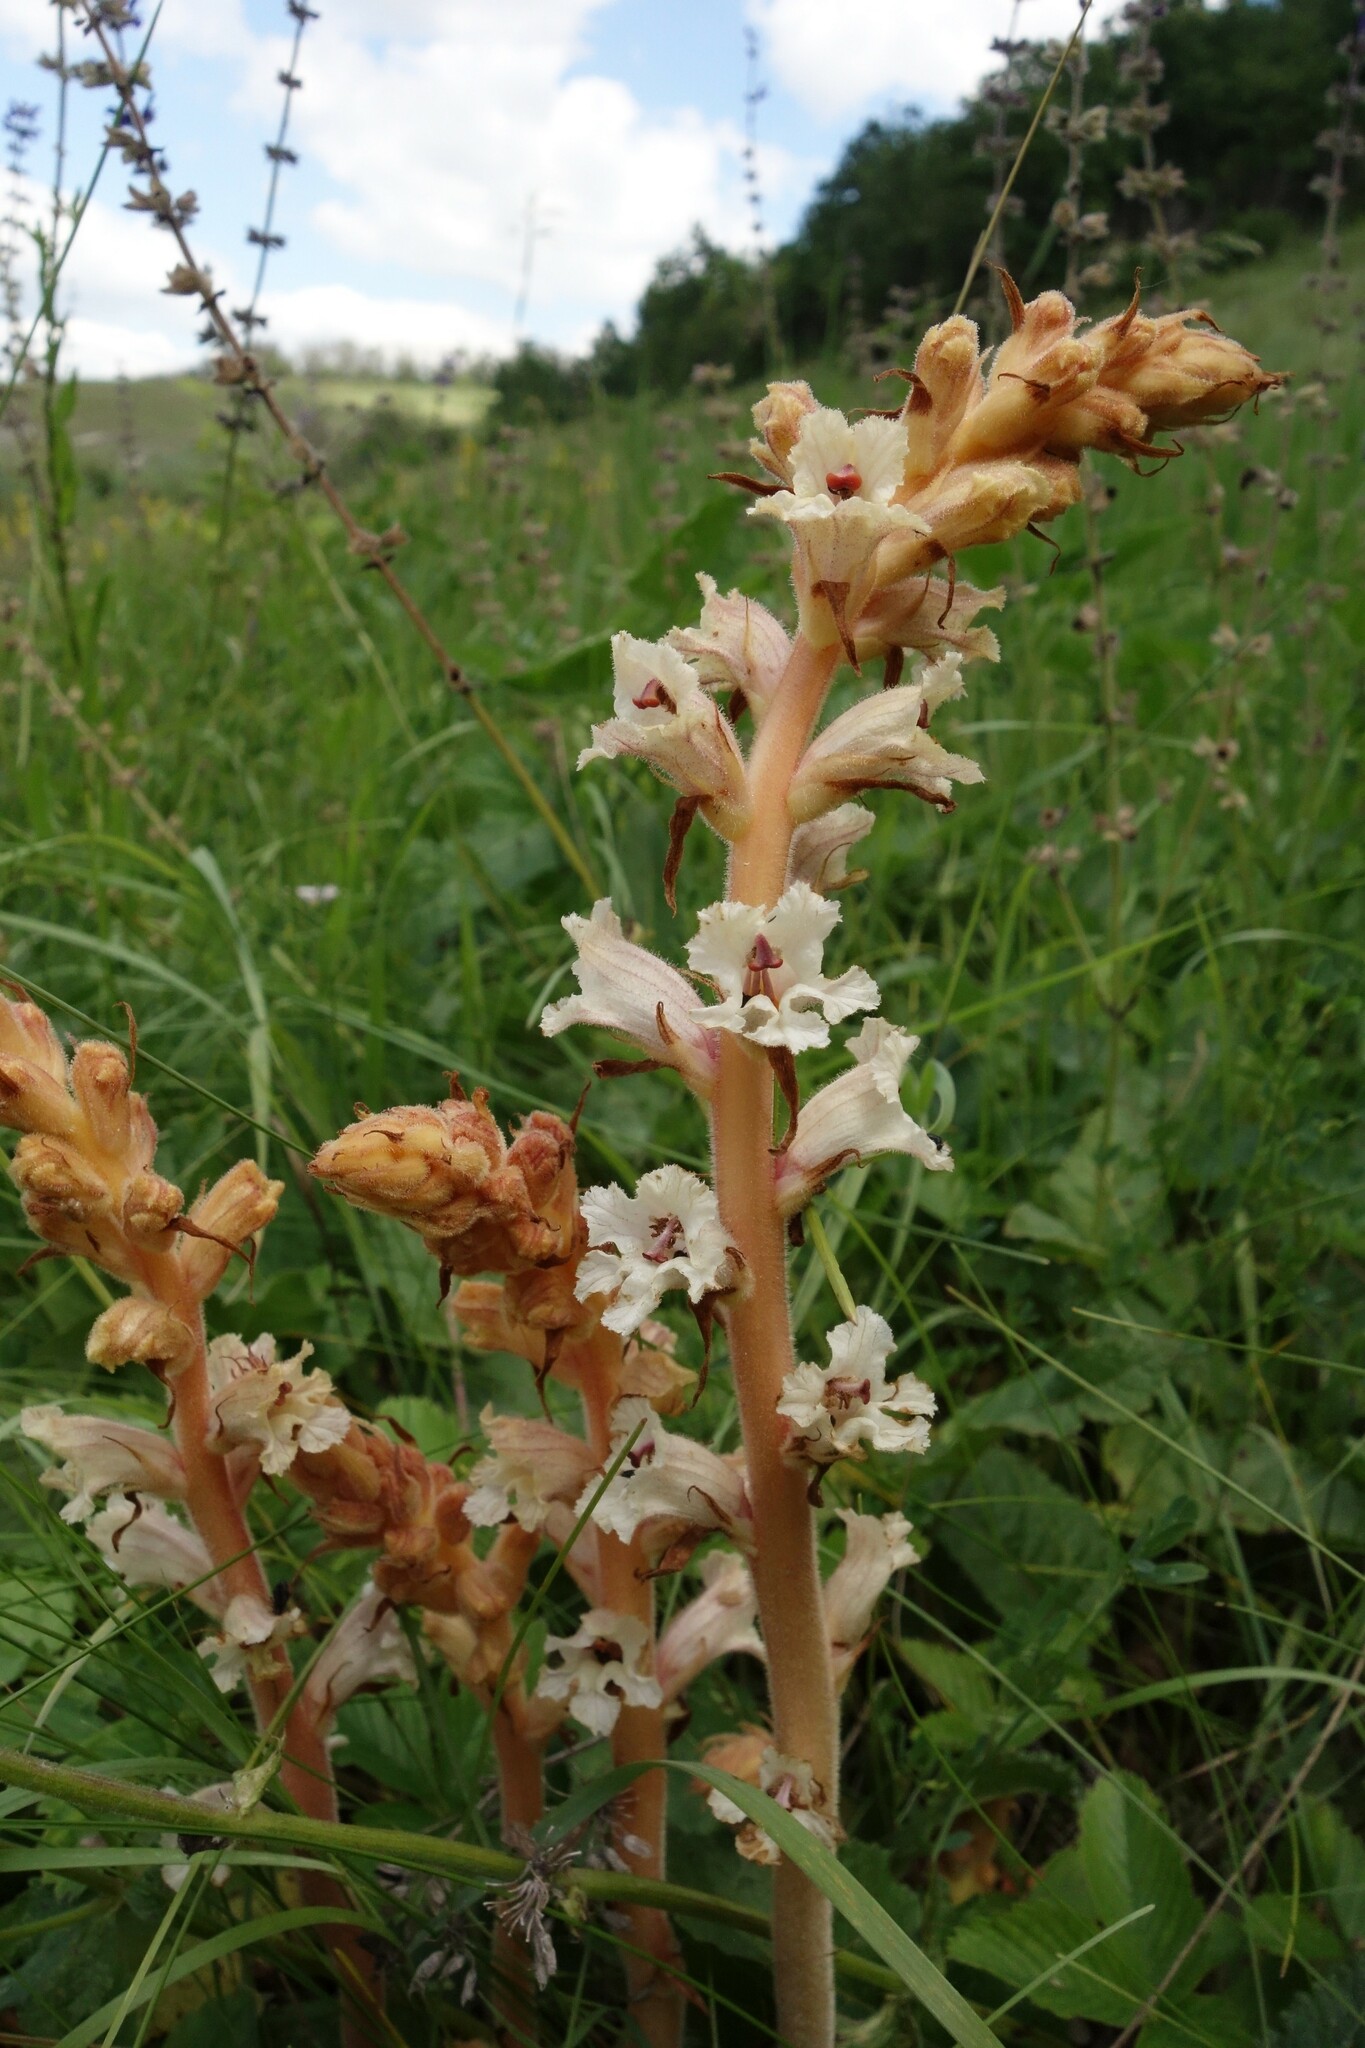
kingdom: Plantae
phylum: Tracheophyta
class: Magnoliopsida
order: Lamiales
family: Orobanchaceae
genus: Orobanche
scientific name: Orobanche alba
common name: Thyme broomrape
